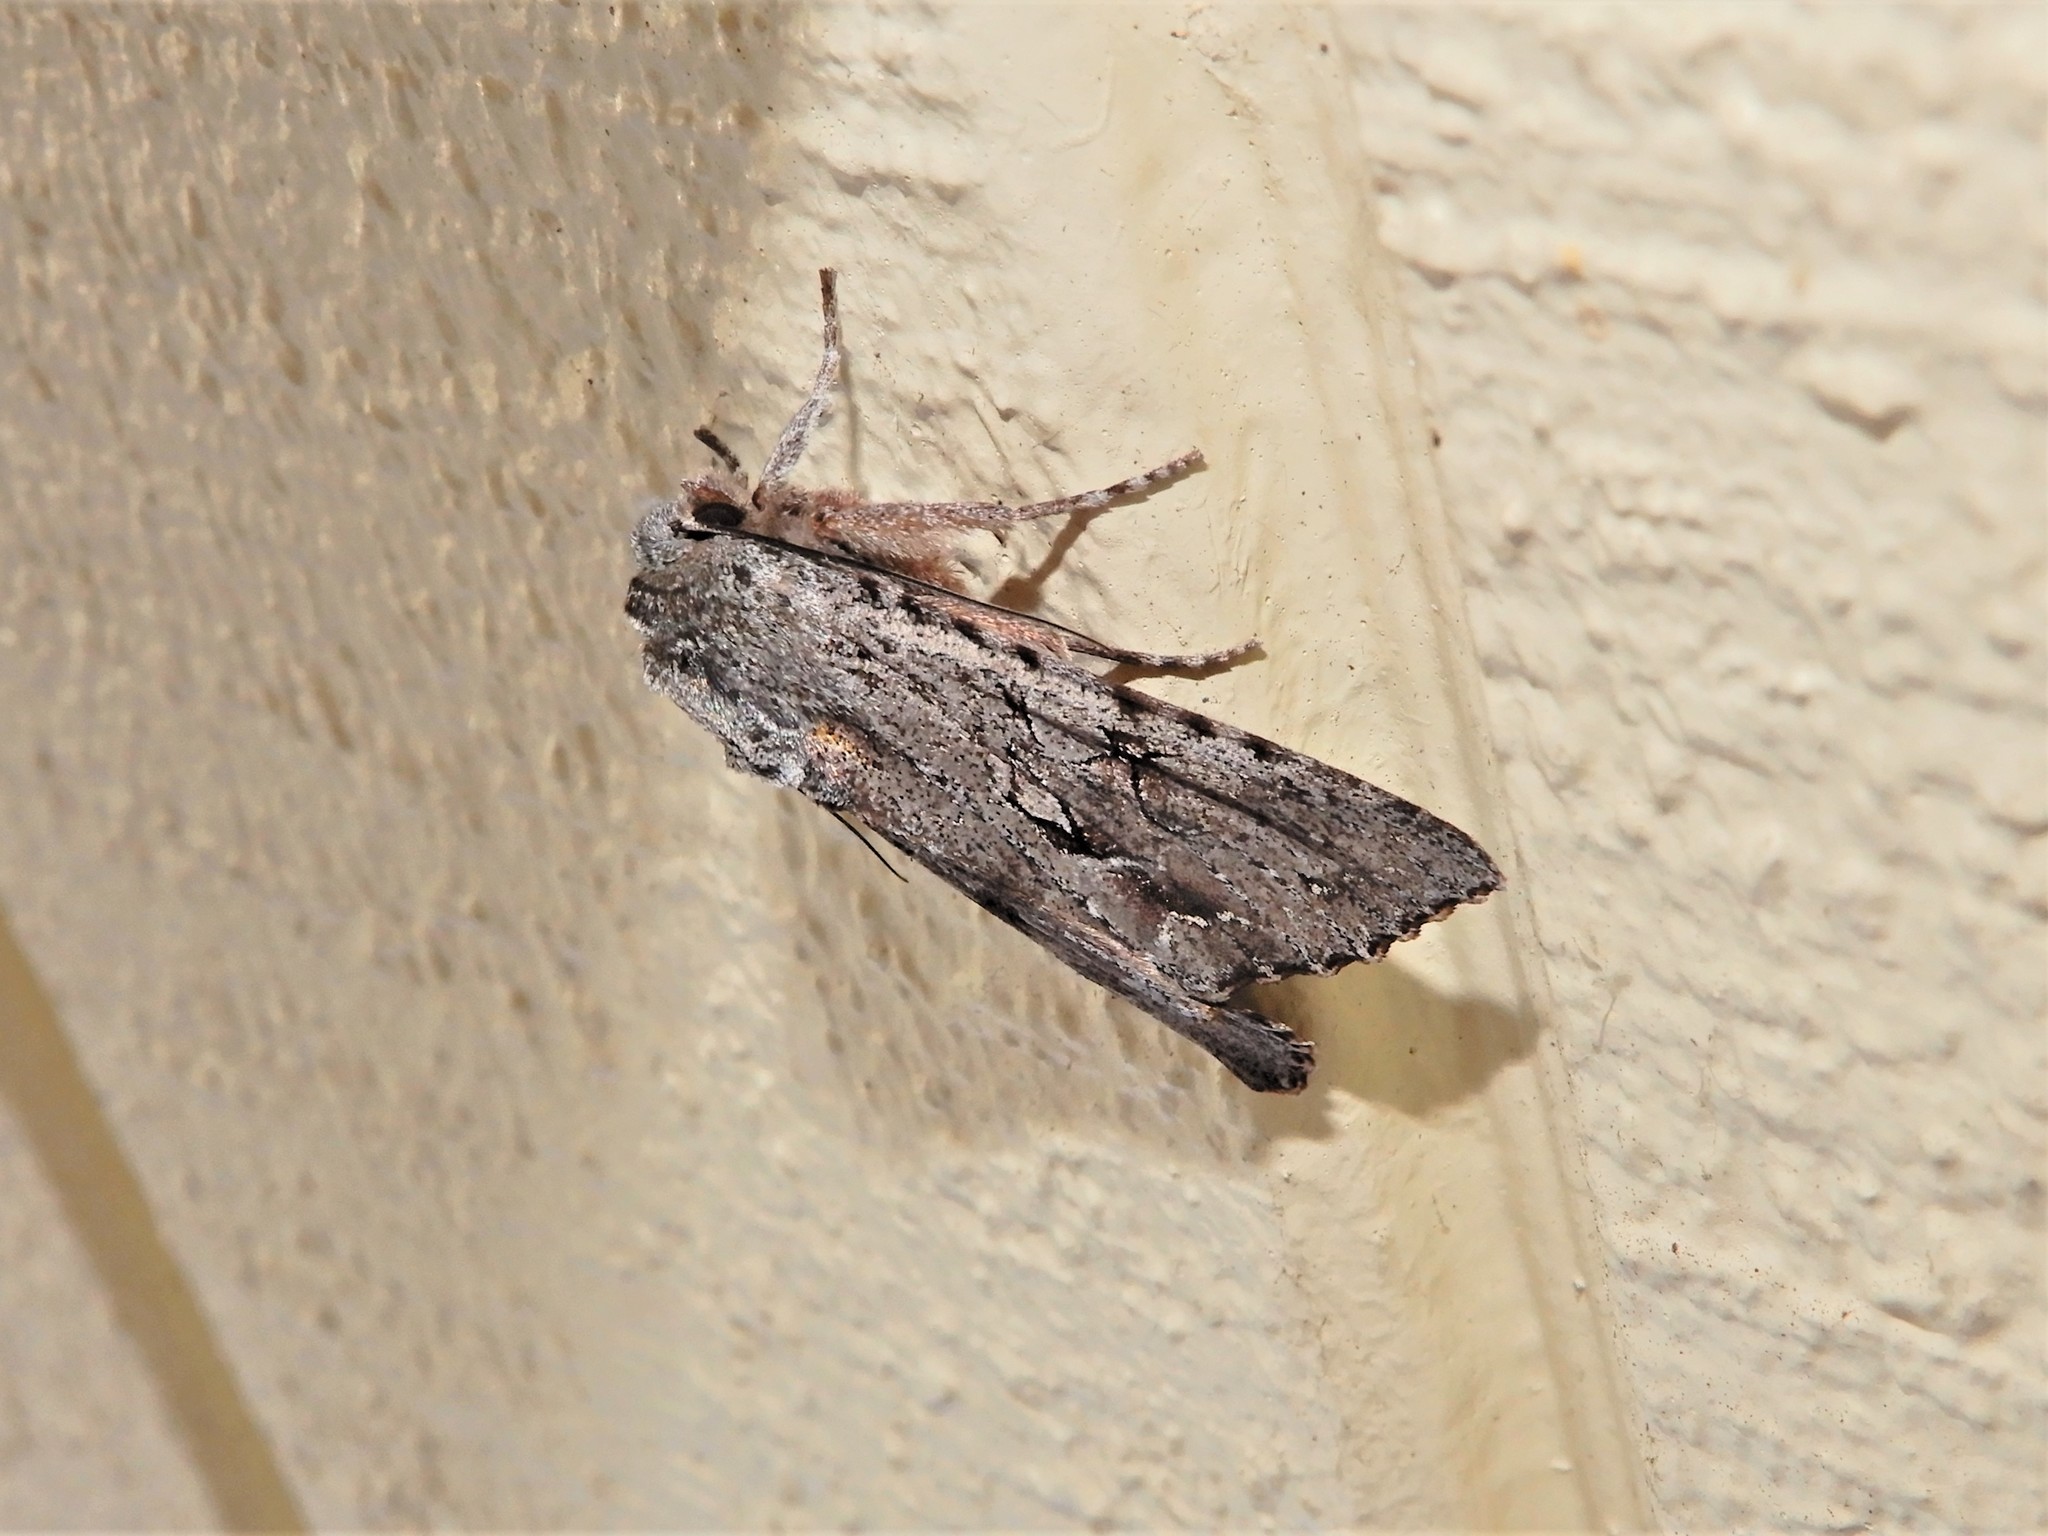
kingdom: Animalia
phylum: Arthropoda
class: Insecta
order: Lepidoptera
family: Noctuidae
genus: Ichneutica
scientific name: Ichneutica
